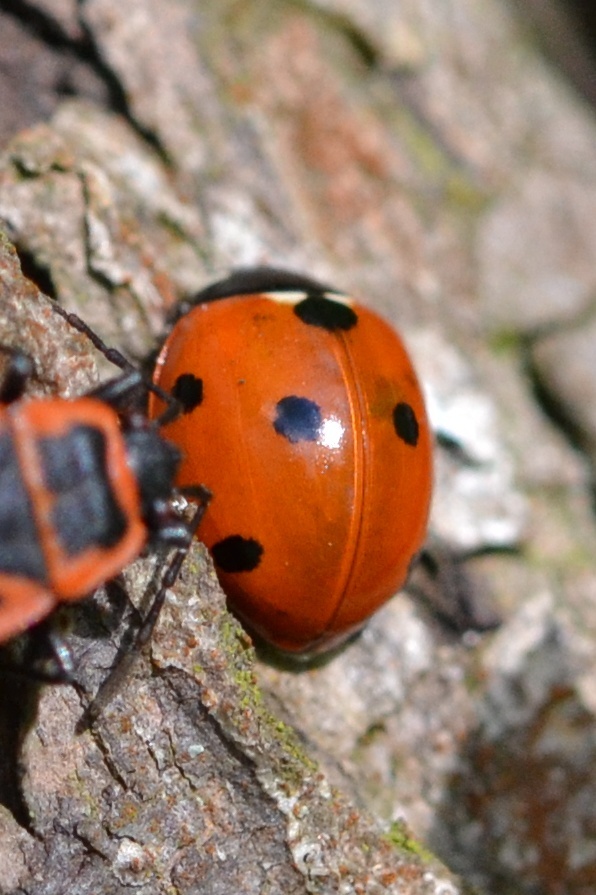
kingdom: Animalia
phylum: Arthropoda
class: Insecta
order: Coleoptera
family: Coccinellidae
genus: Coccinella
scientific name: Coccinella septempunctata
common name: Sevenspotted lady beetle
